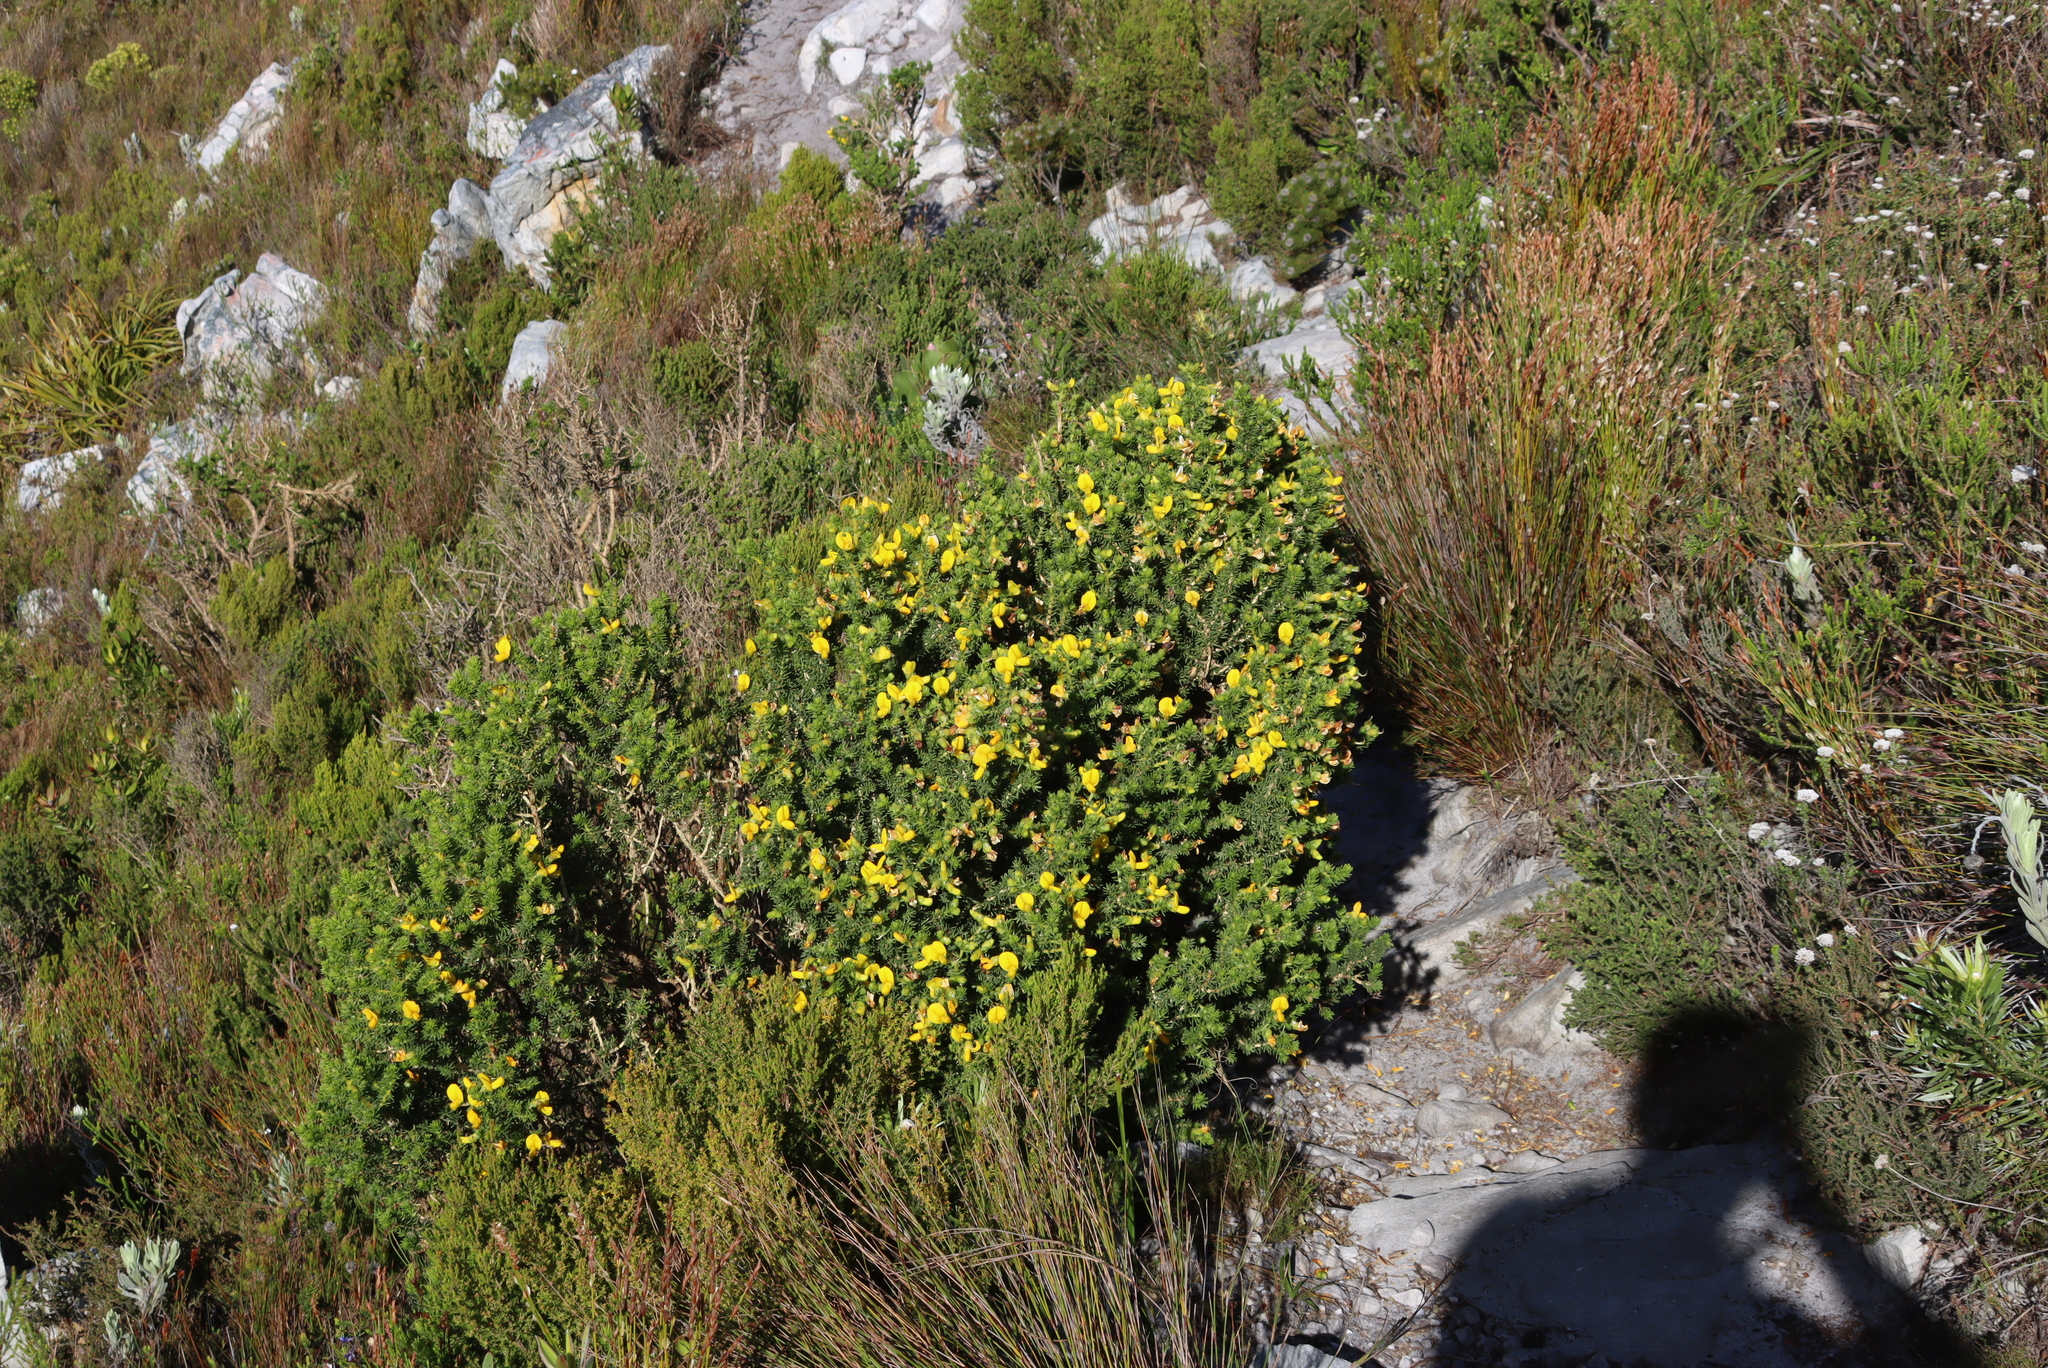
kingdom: Plantae
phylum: Tracheophyta
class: Magnoliopsida
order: Fabales
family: Fabaceae
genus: Aspalathus
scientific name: Aspalathus capensis
